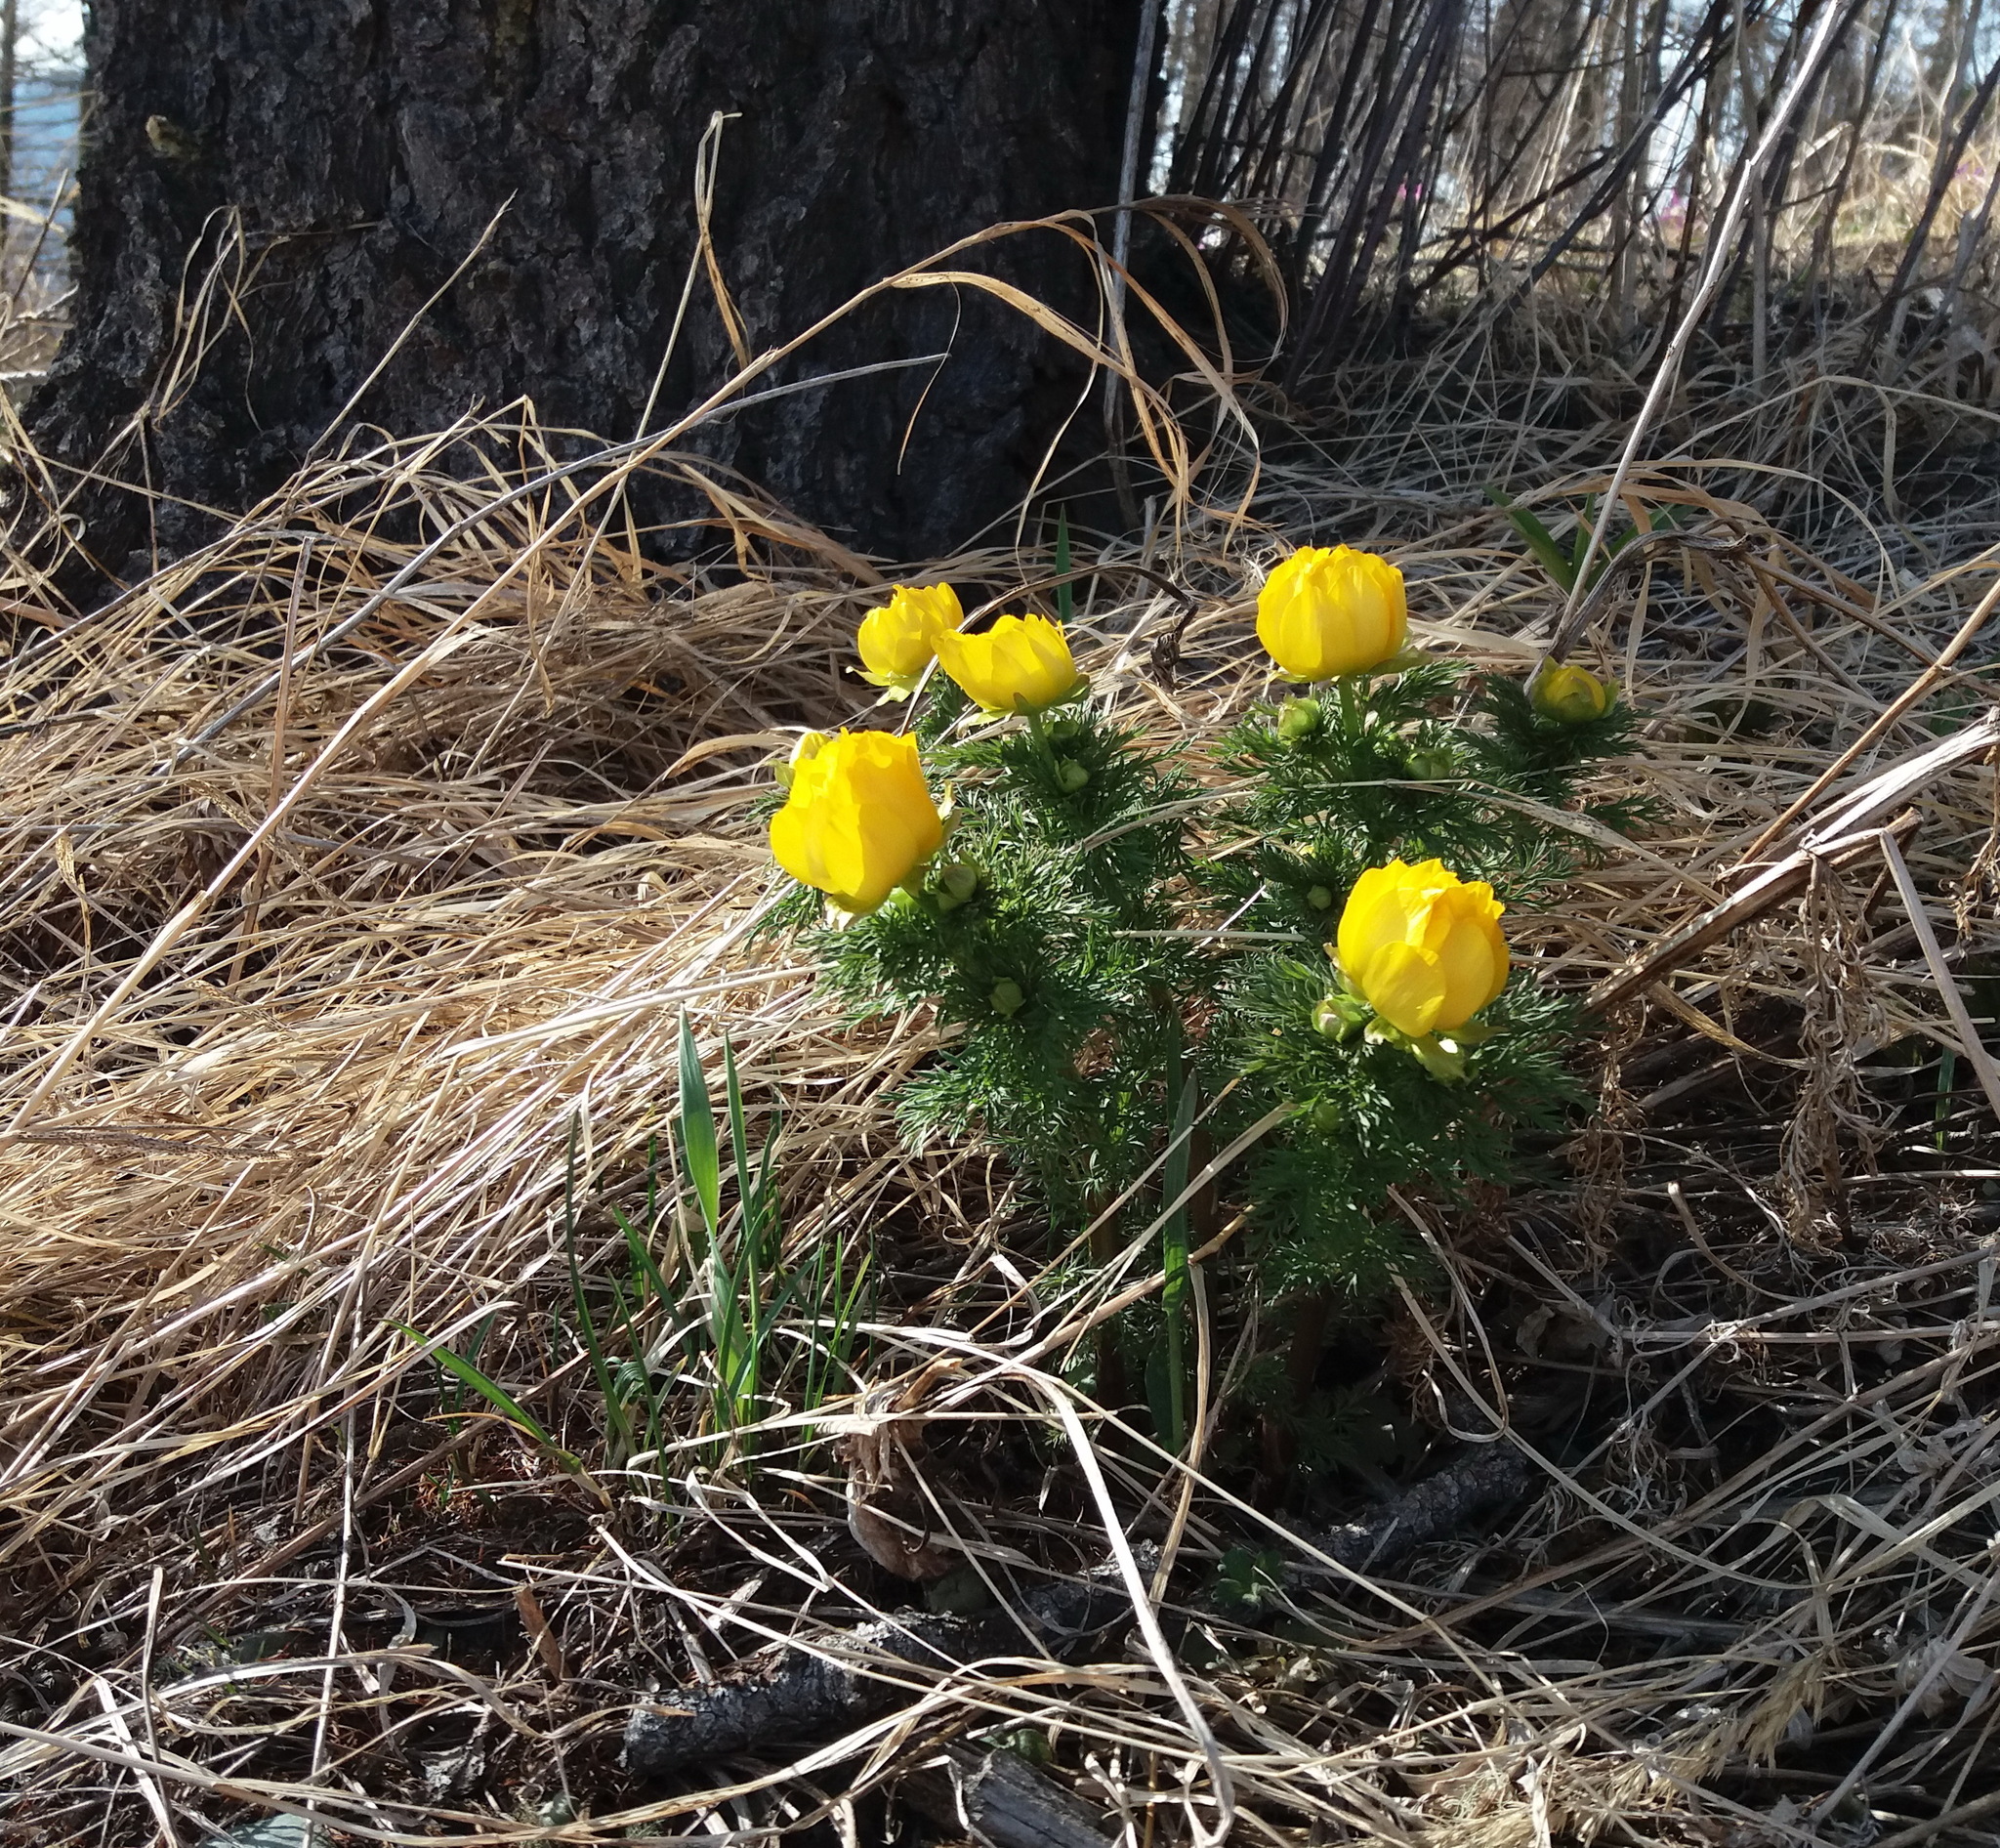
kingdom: Plantae
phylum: Tracheophyta
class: Magnoliopsida
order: Ranunculales
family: Ranunculaceae
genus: Adonis
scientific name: Adonis
